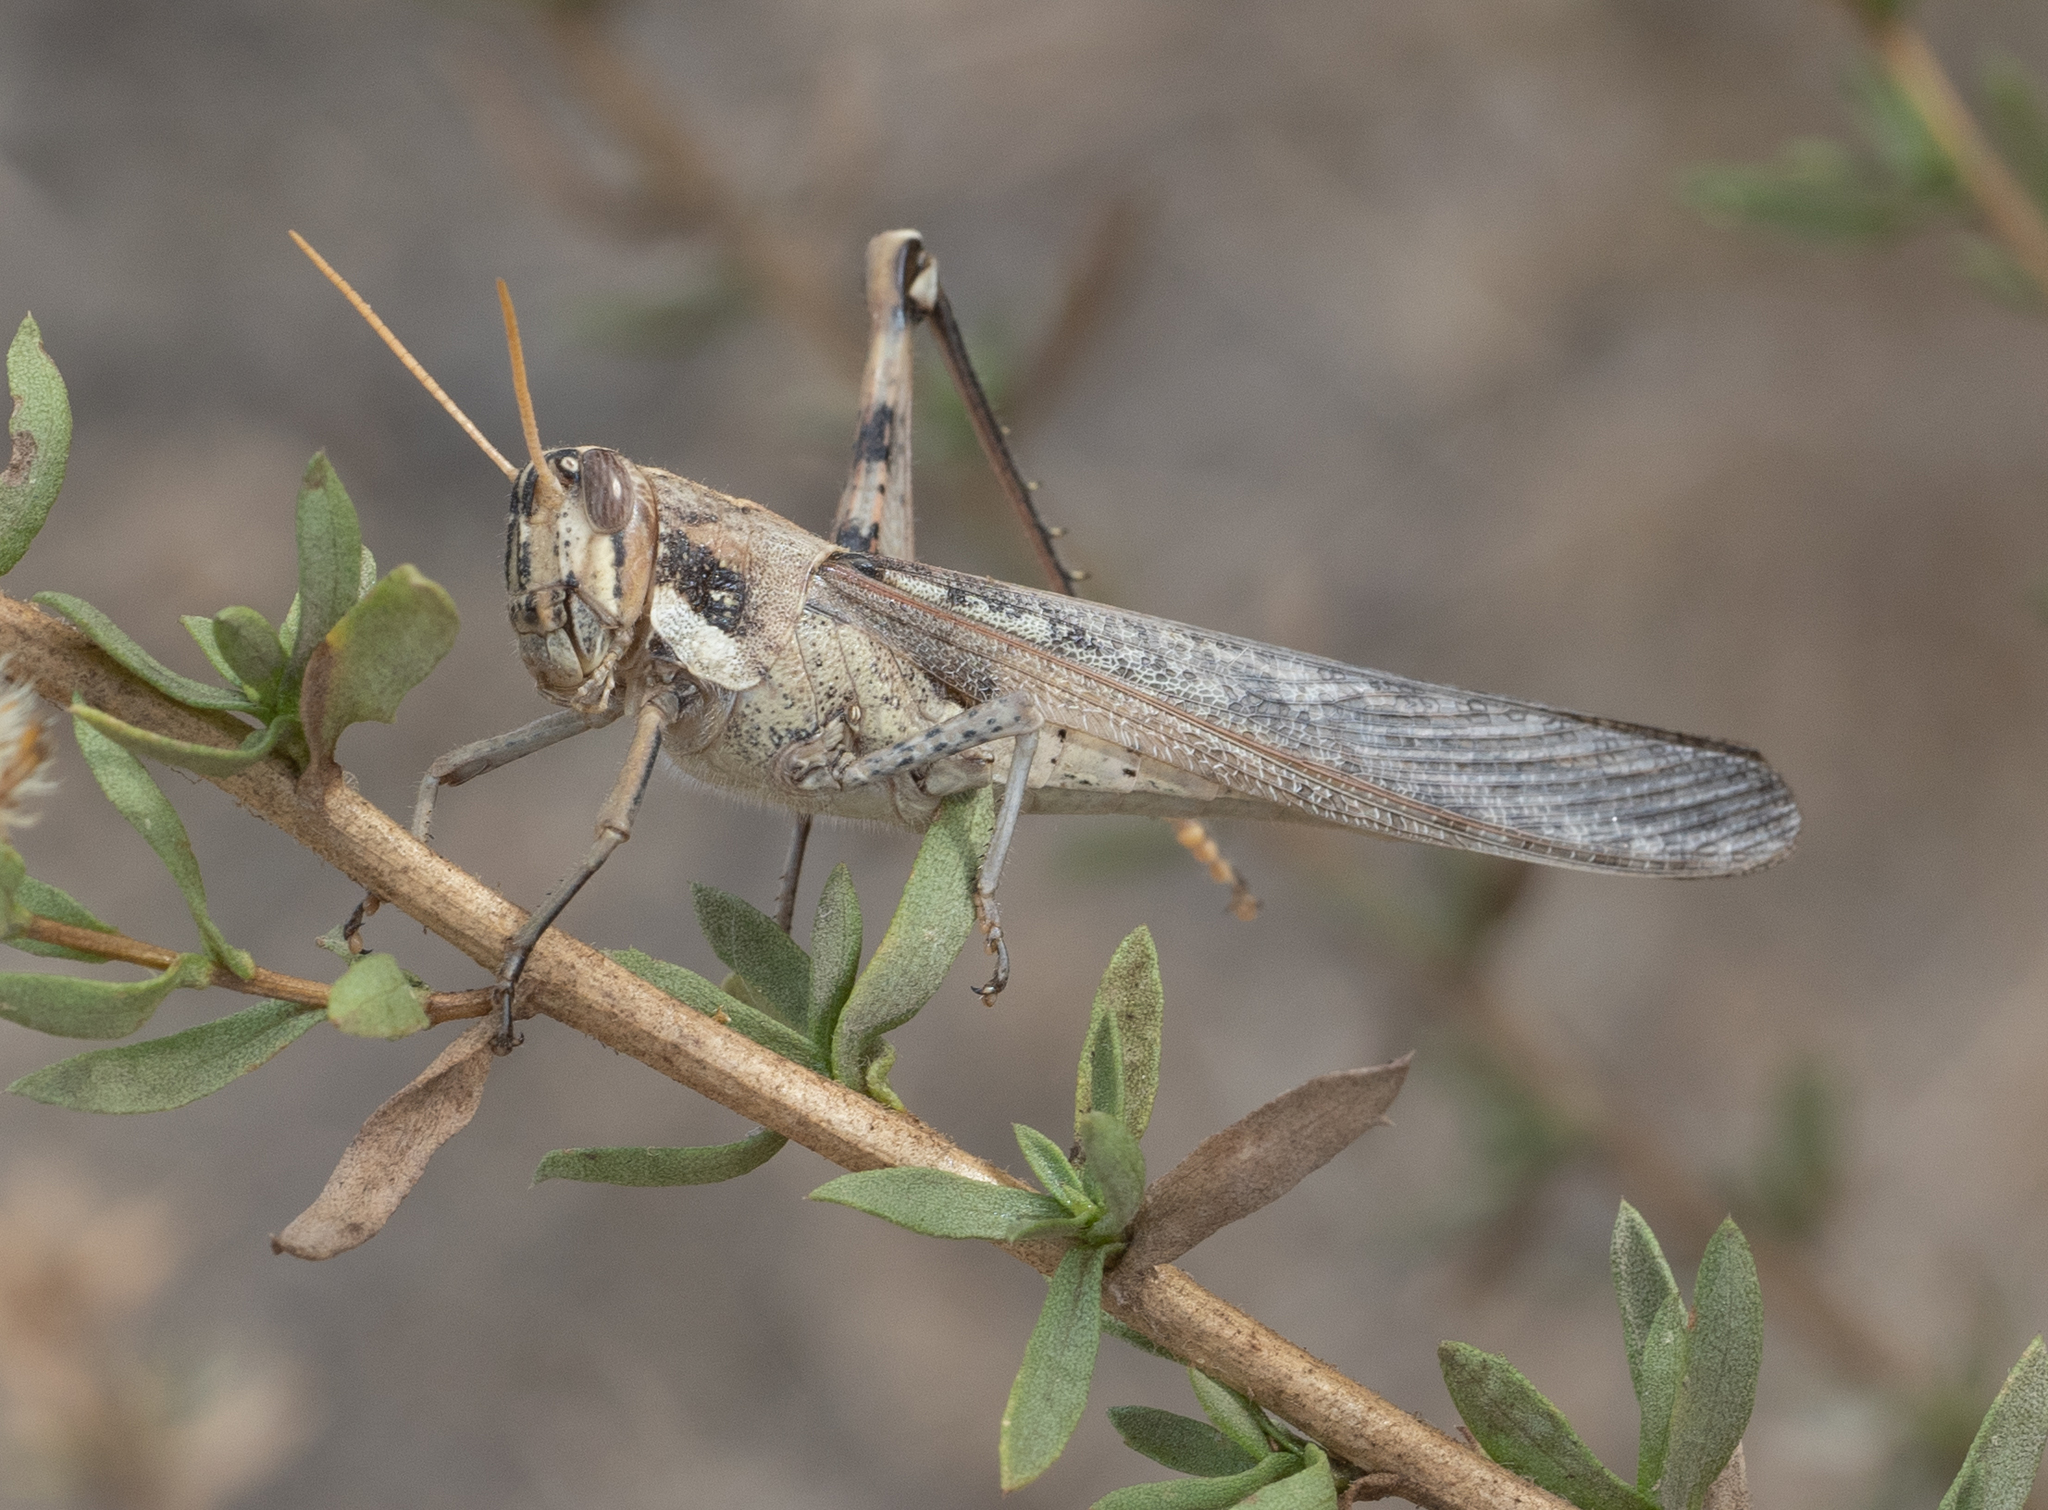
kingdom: Animalia
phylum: Arthropoda
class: Insecta
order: Orthoptera
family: Acrididae
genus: Schistocerca
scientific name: Schistocerca nitens
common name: Vagrant grasshopper
